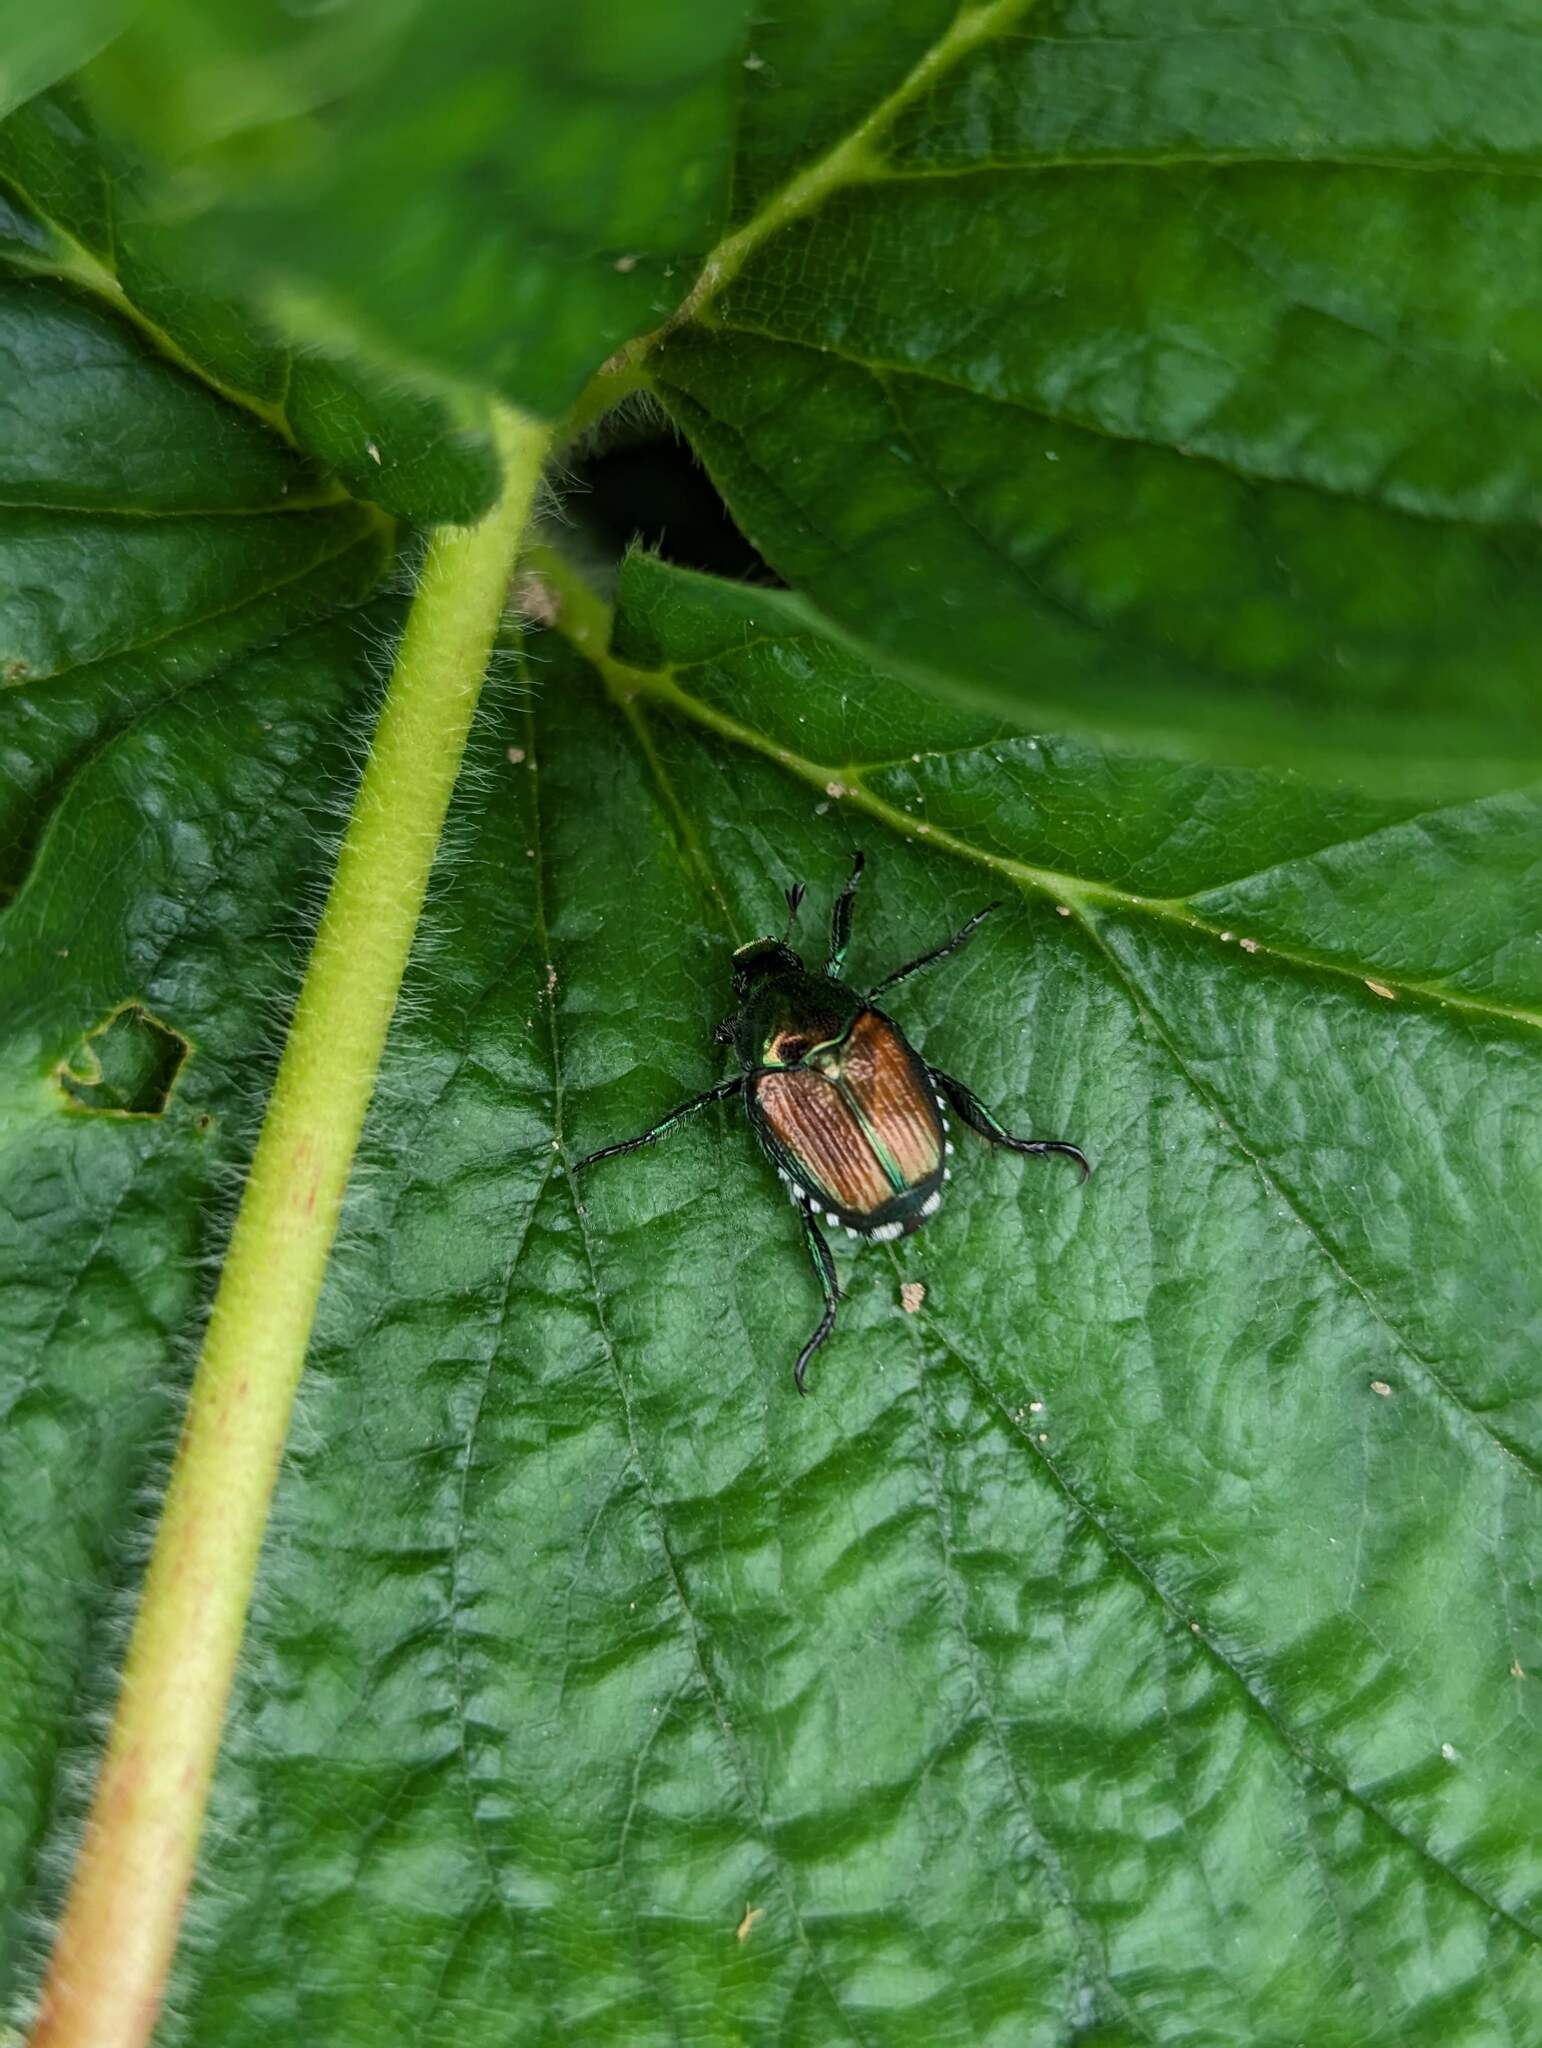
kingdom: Animalia
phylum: Arthropoda
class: Insecta
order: Coleoptera
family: Scarabaeidae
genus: Popillia
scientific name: Popillia japonica
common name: Japanese beetle
